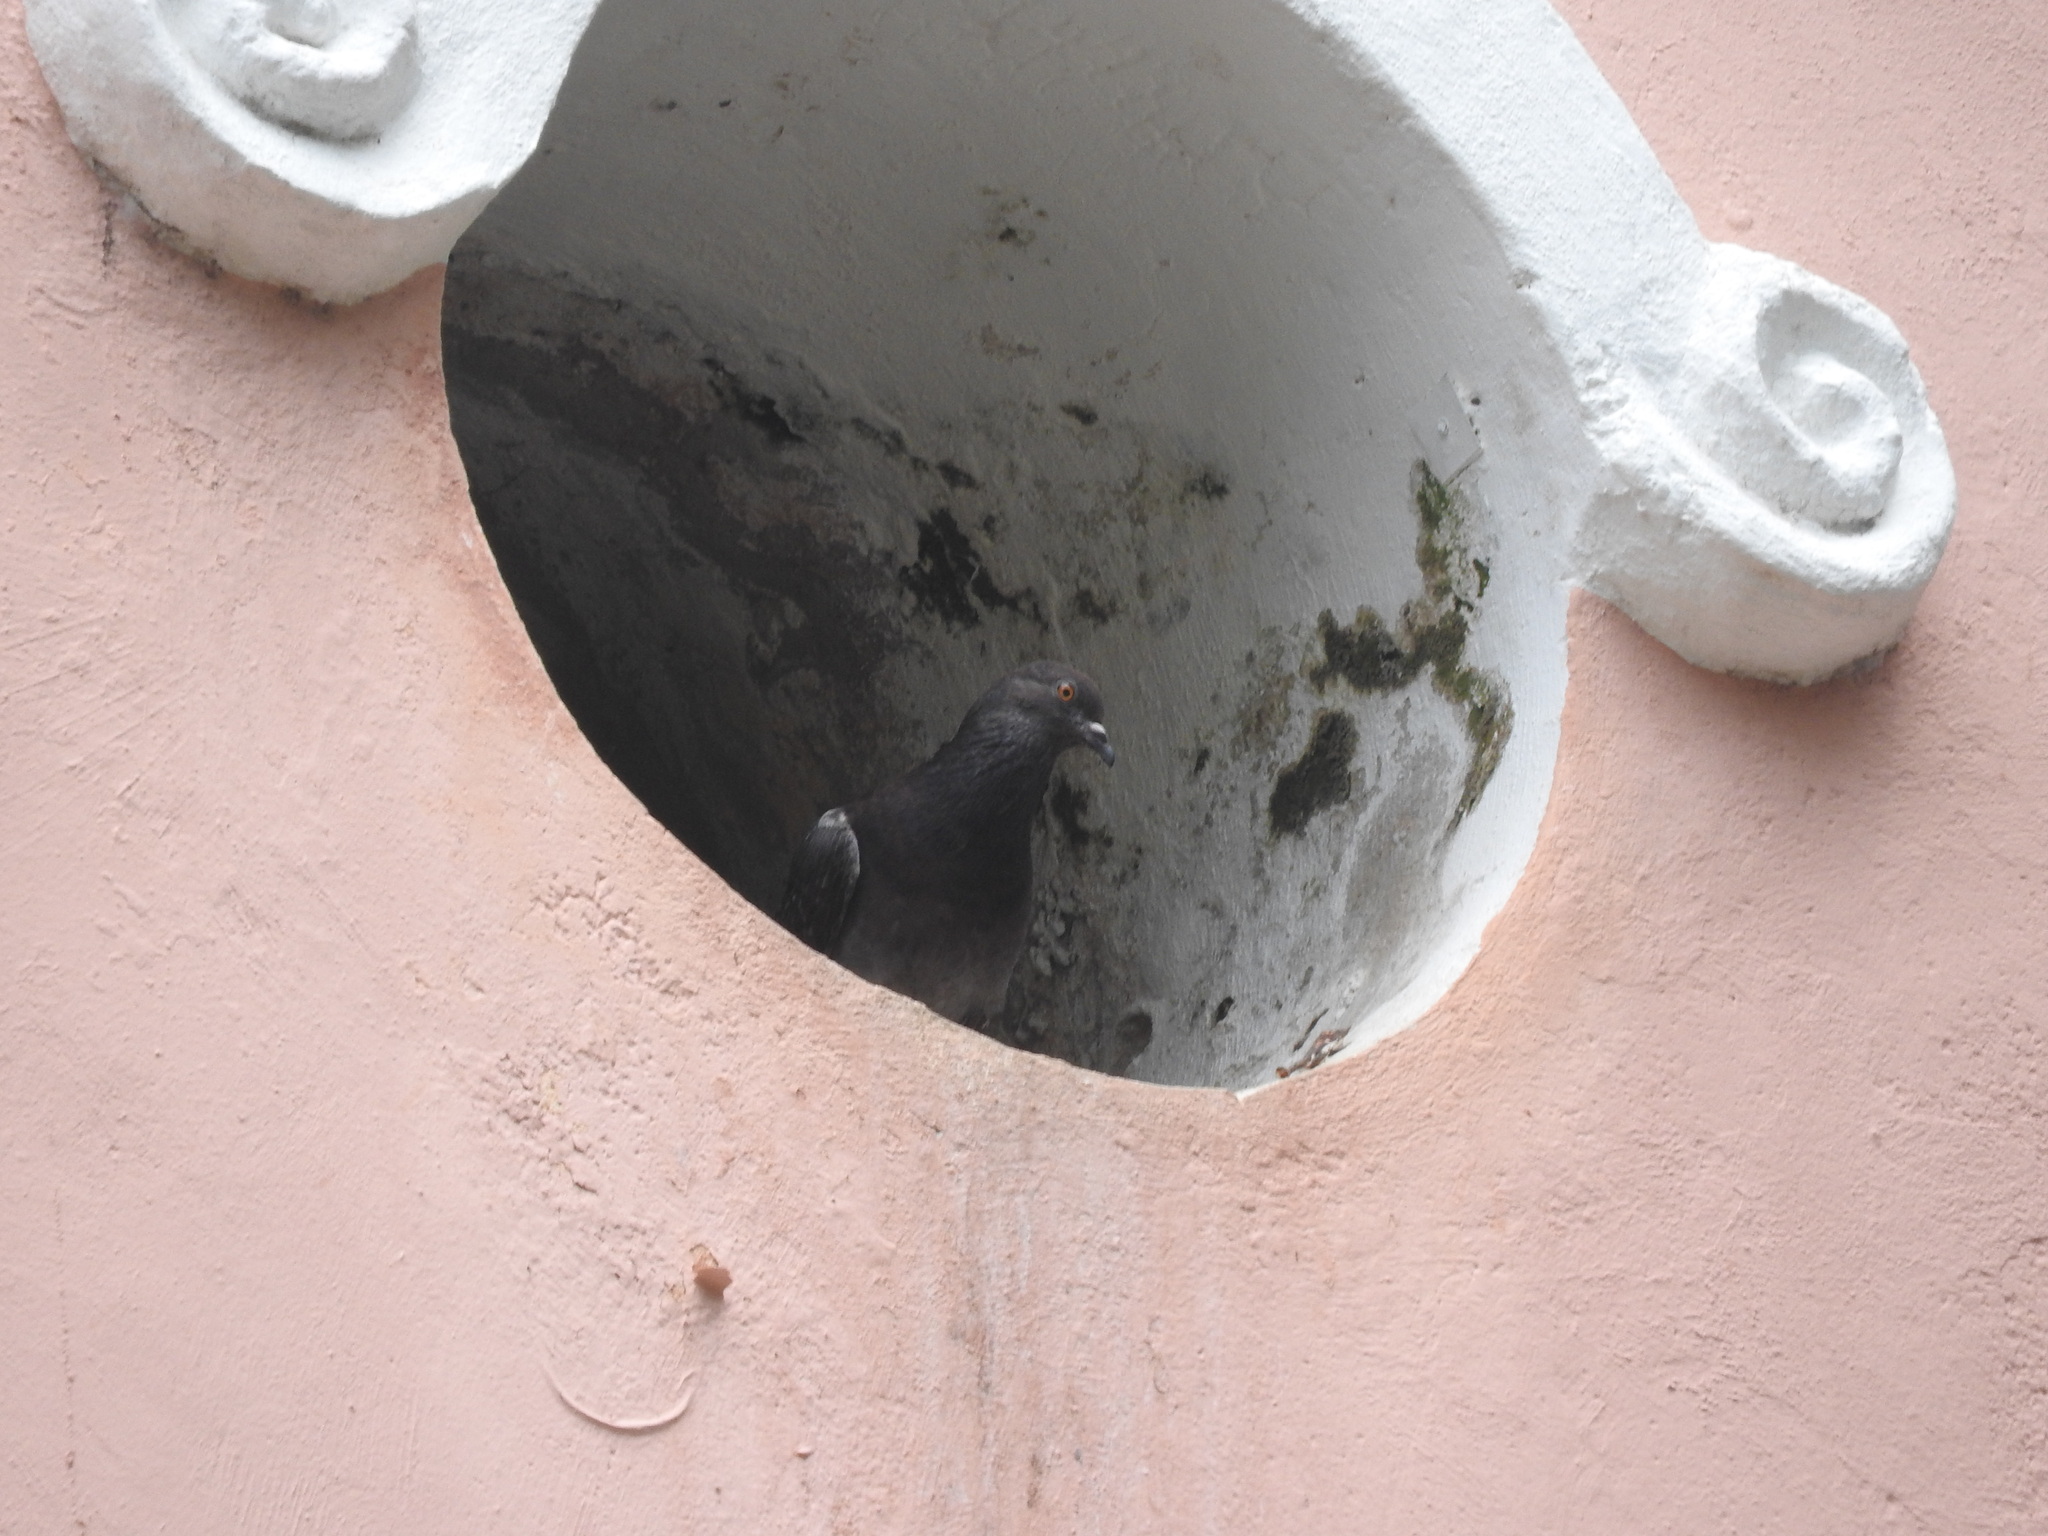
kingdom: Animalia
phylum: Chordata
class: Aves
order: Columbiformes
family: Columbidae
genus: Columba
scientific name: Columba livia
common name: Rock pigeon
